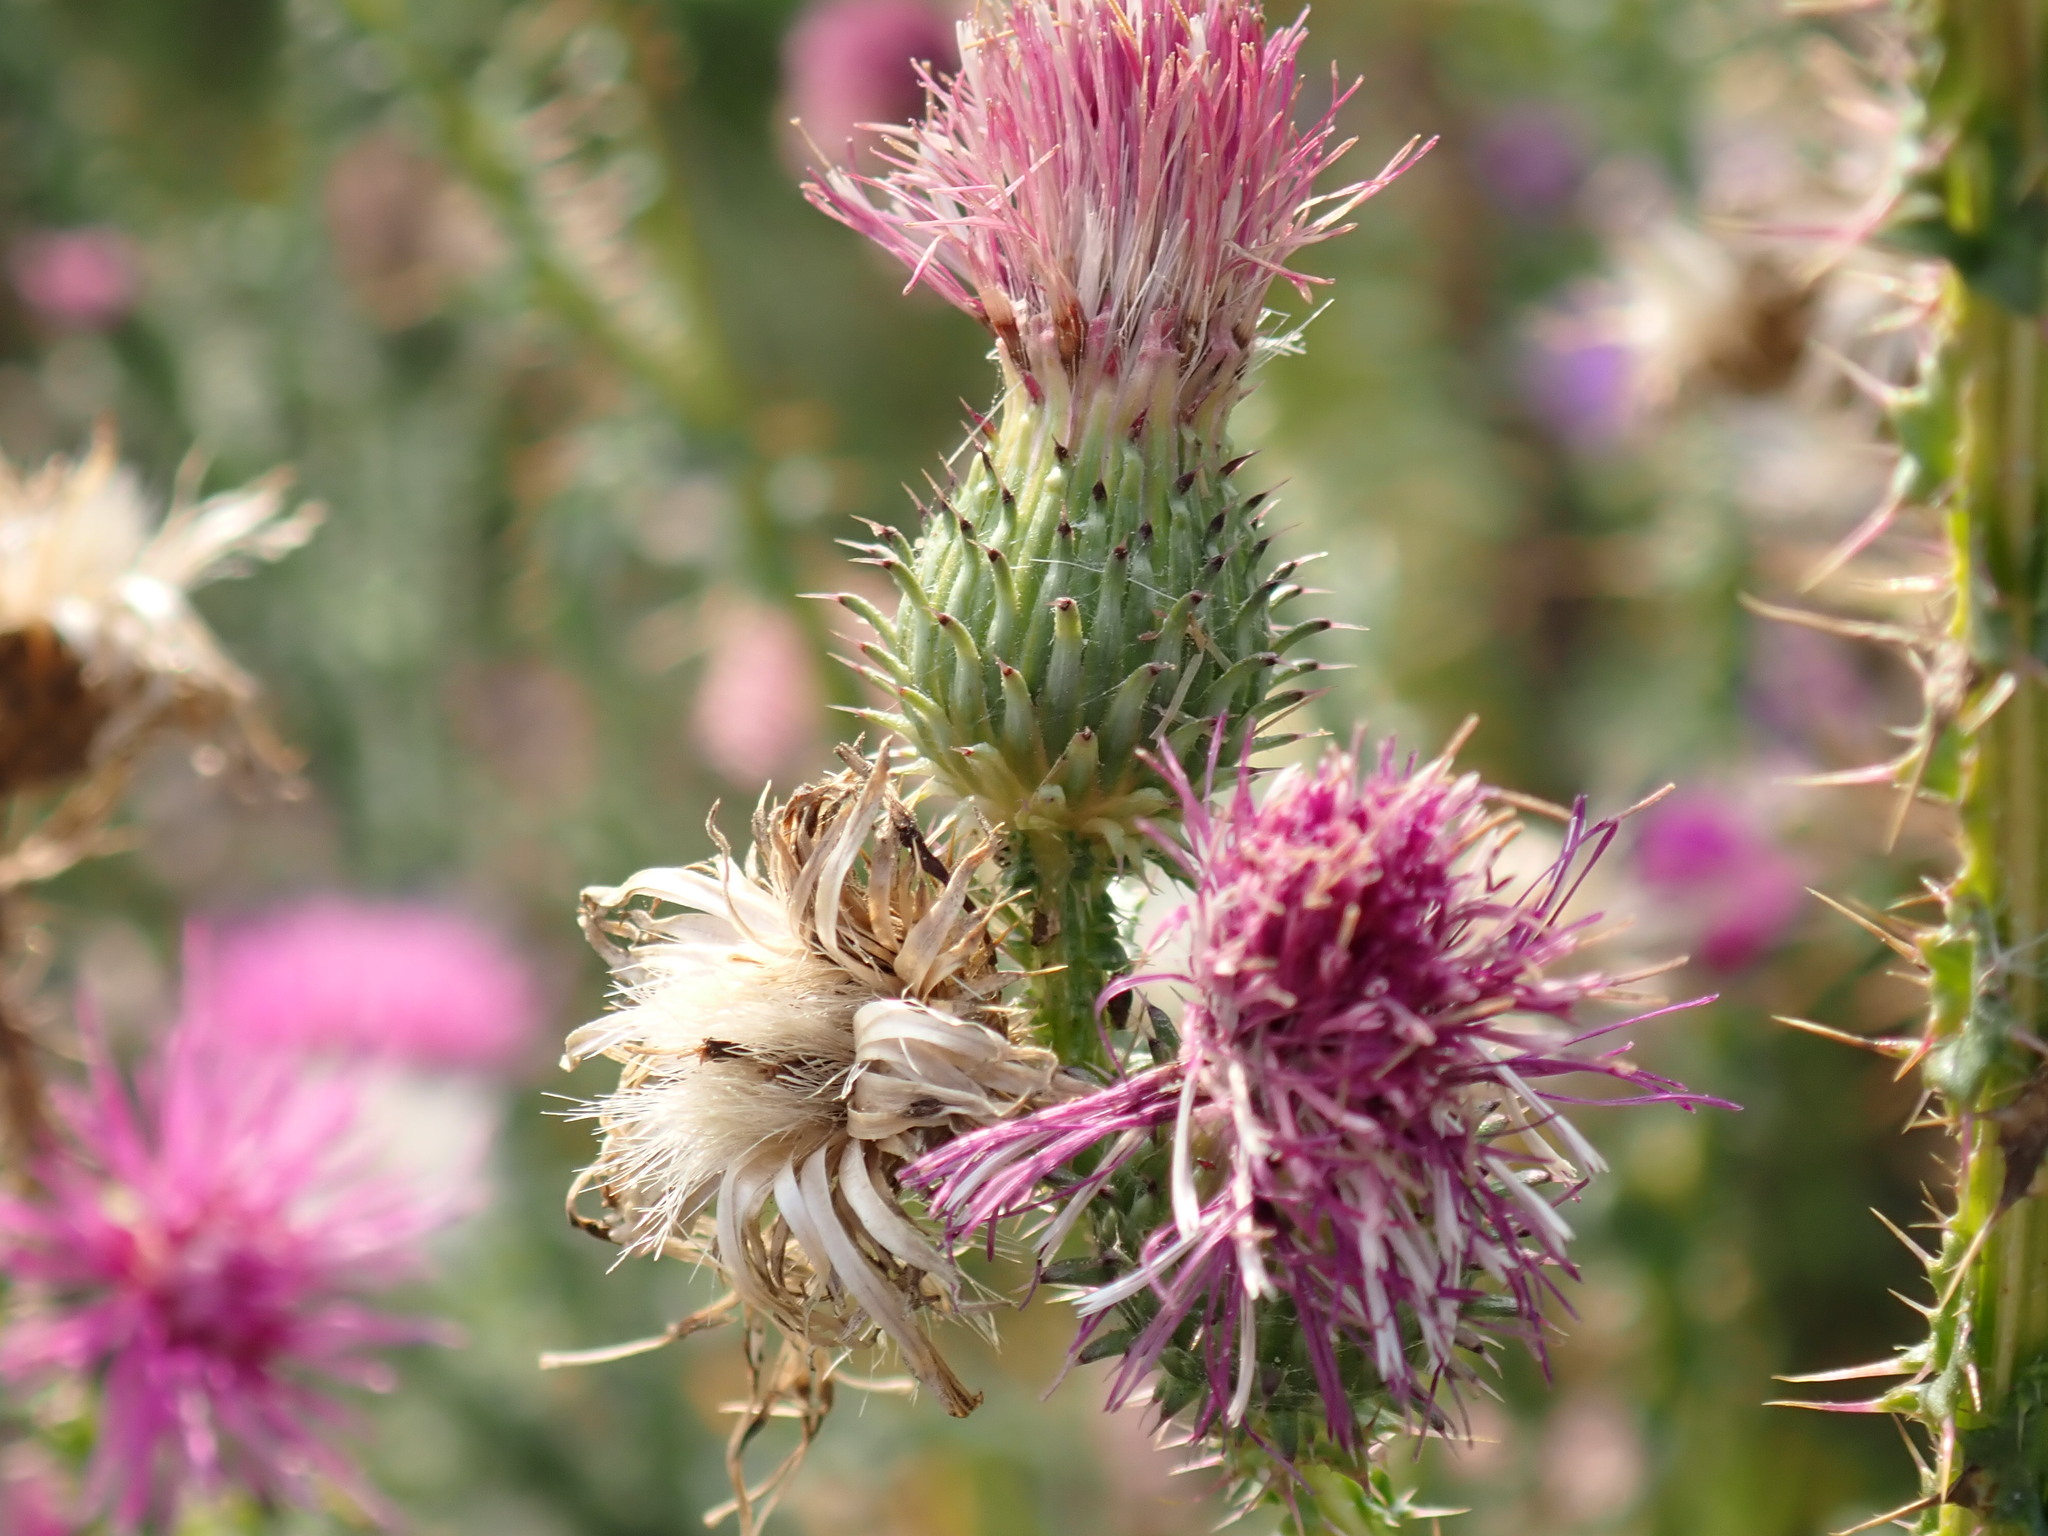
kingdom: Plantae
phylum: Tracheophyta
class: Magnoliopsida
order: Asterales
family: Asteraceae
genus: Carduus
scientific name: Carduus acanthoides
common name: Plumeless thistle
